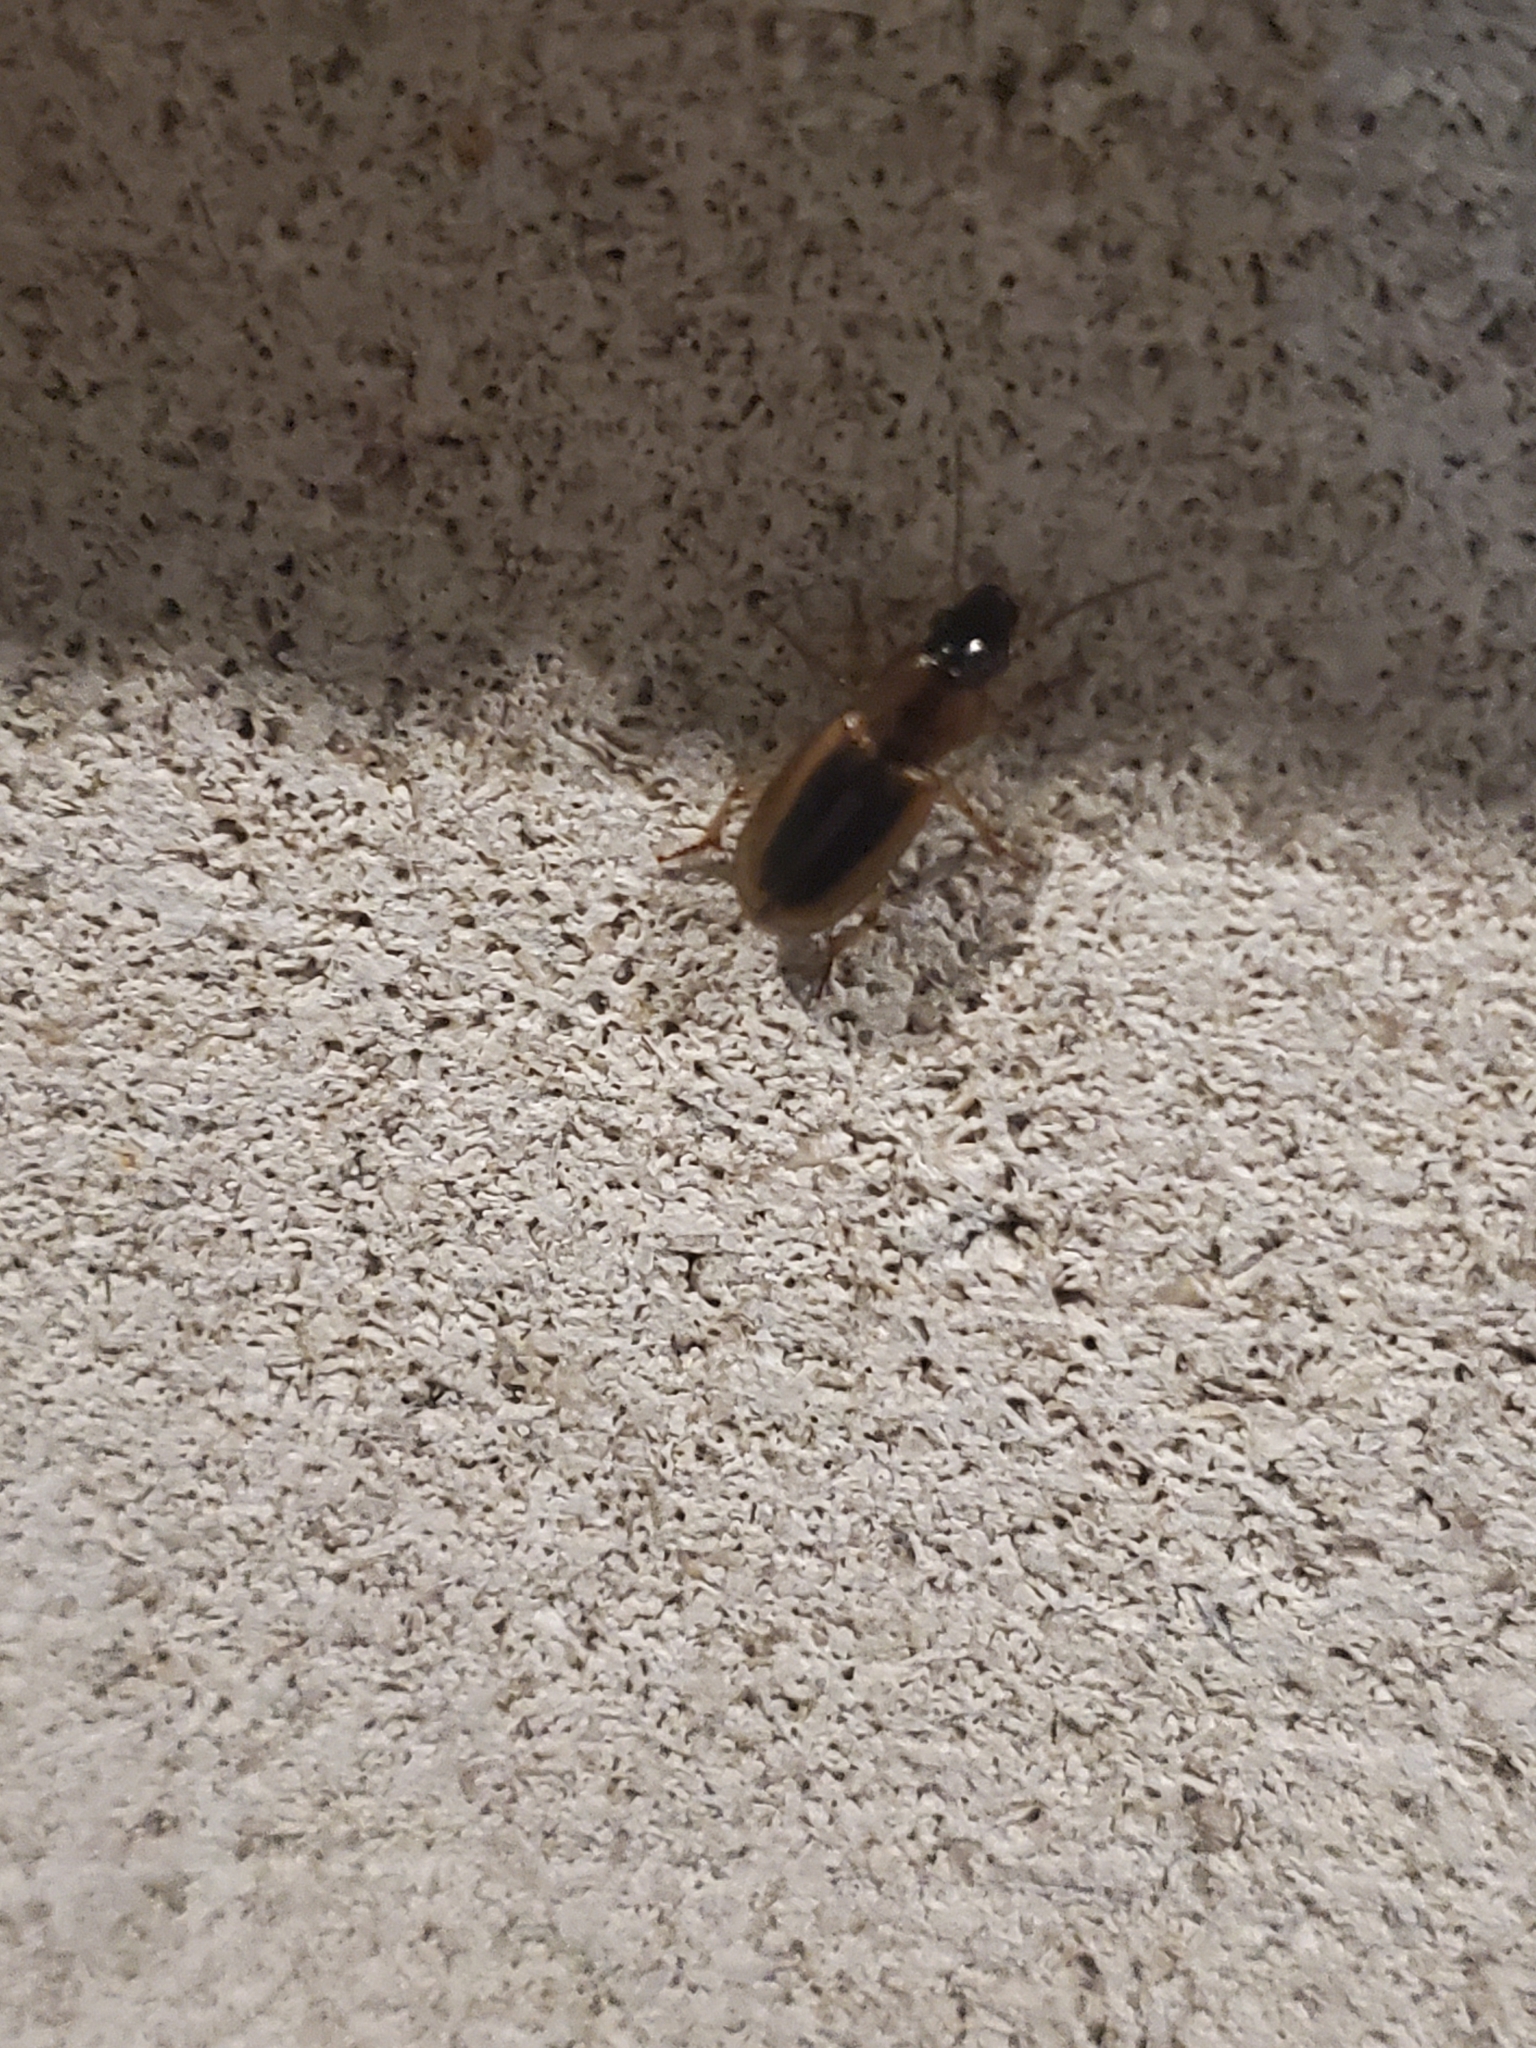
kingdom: Animalia
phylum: Arthropoda
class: Insecta
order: Coleoptera
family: Carabidae
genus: Stenolophus
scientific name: Stenolophus lecontei
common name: Leconte's seedcorn beetle
